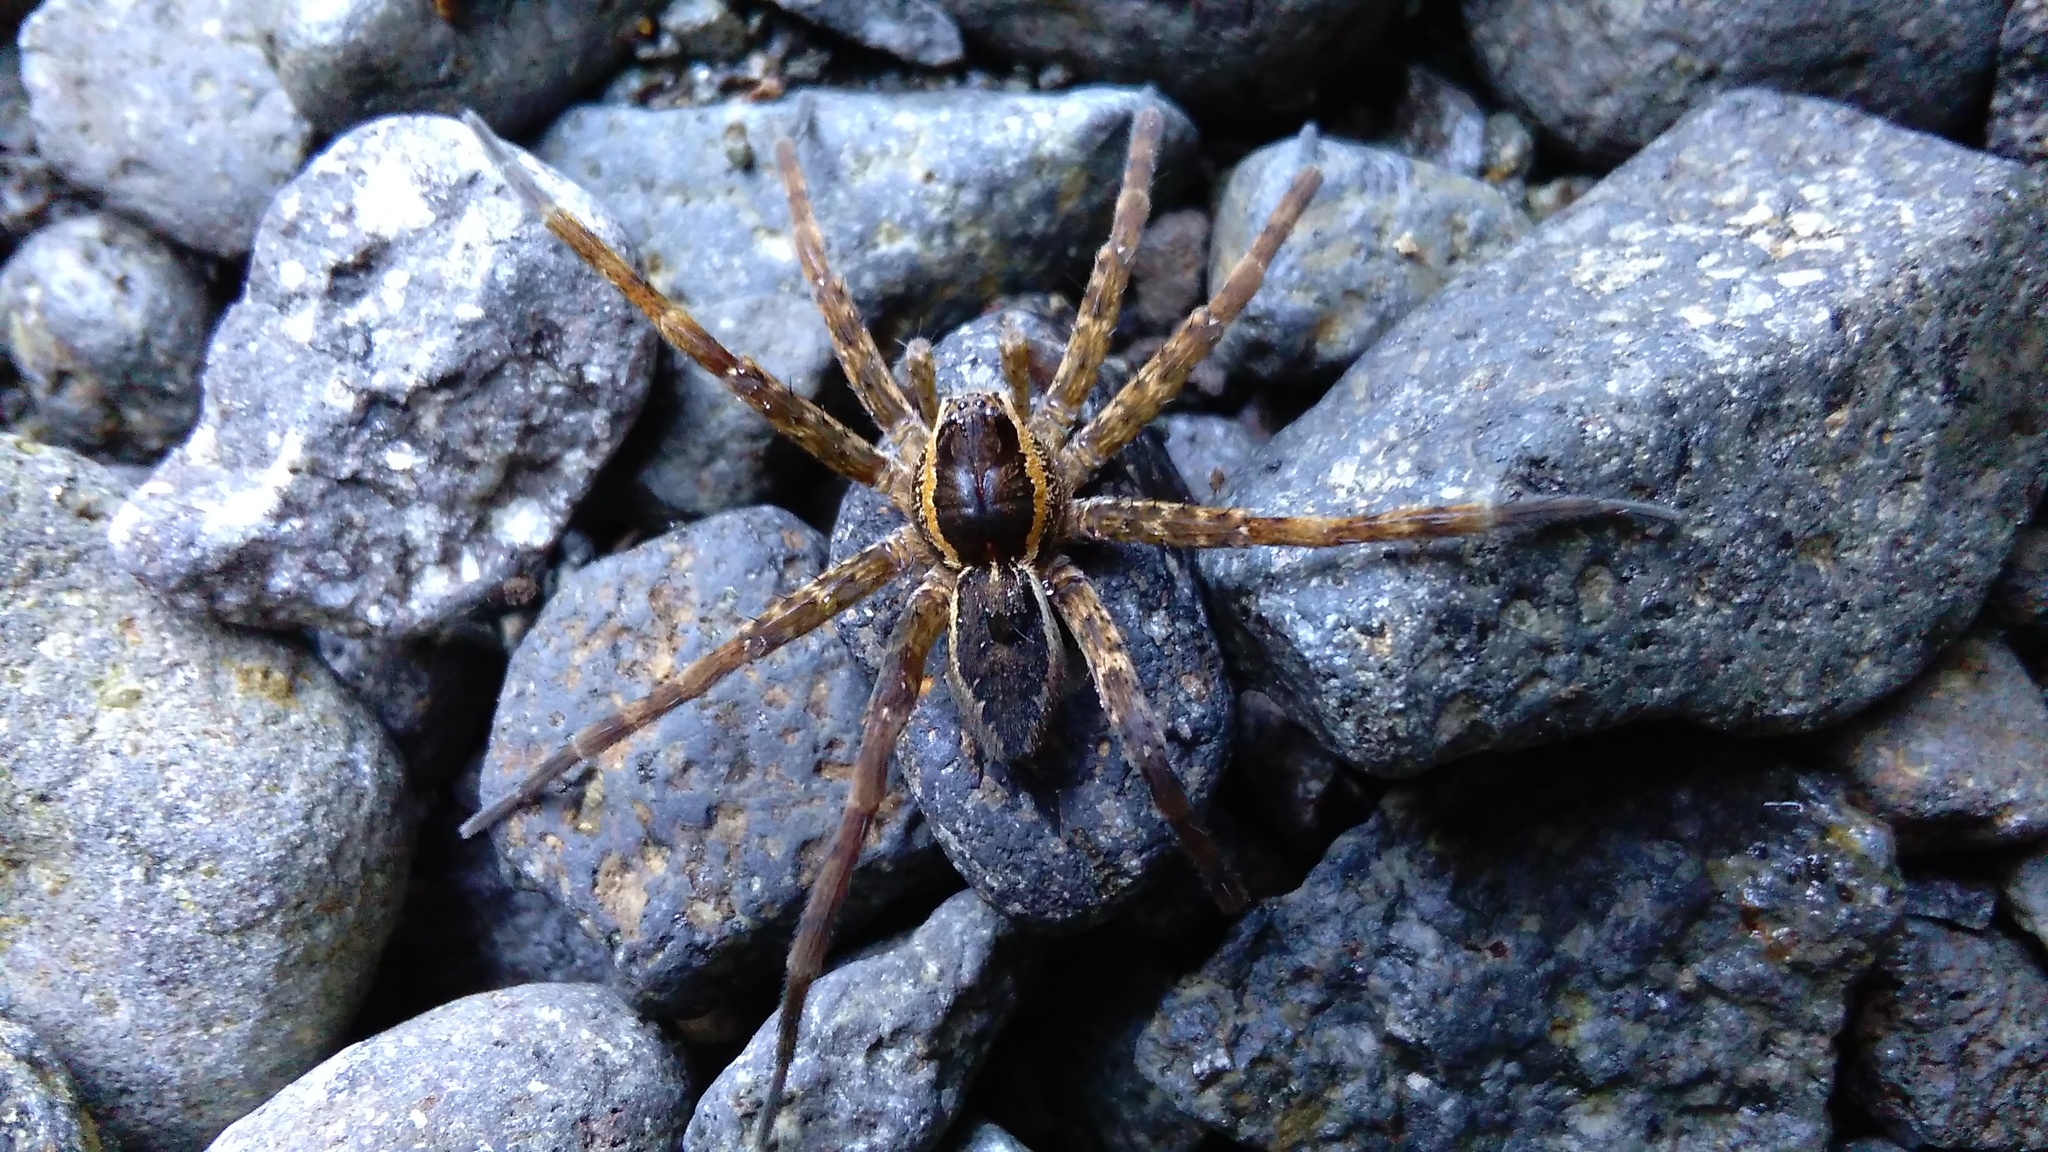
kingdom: Animalia
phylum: Arthropoda
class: Arachnida
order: Araneae
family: Pisauridae
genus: Dolomedes
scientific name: Dolomedes dondalei
